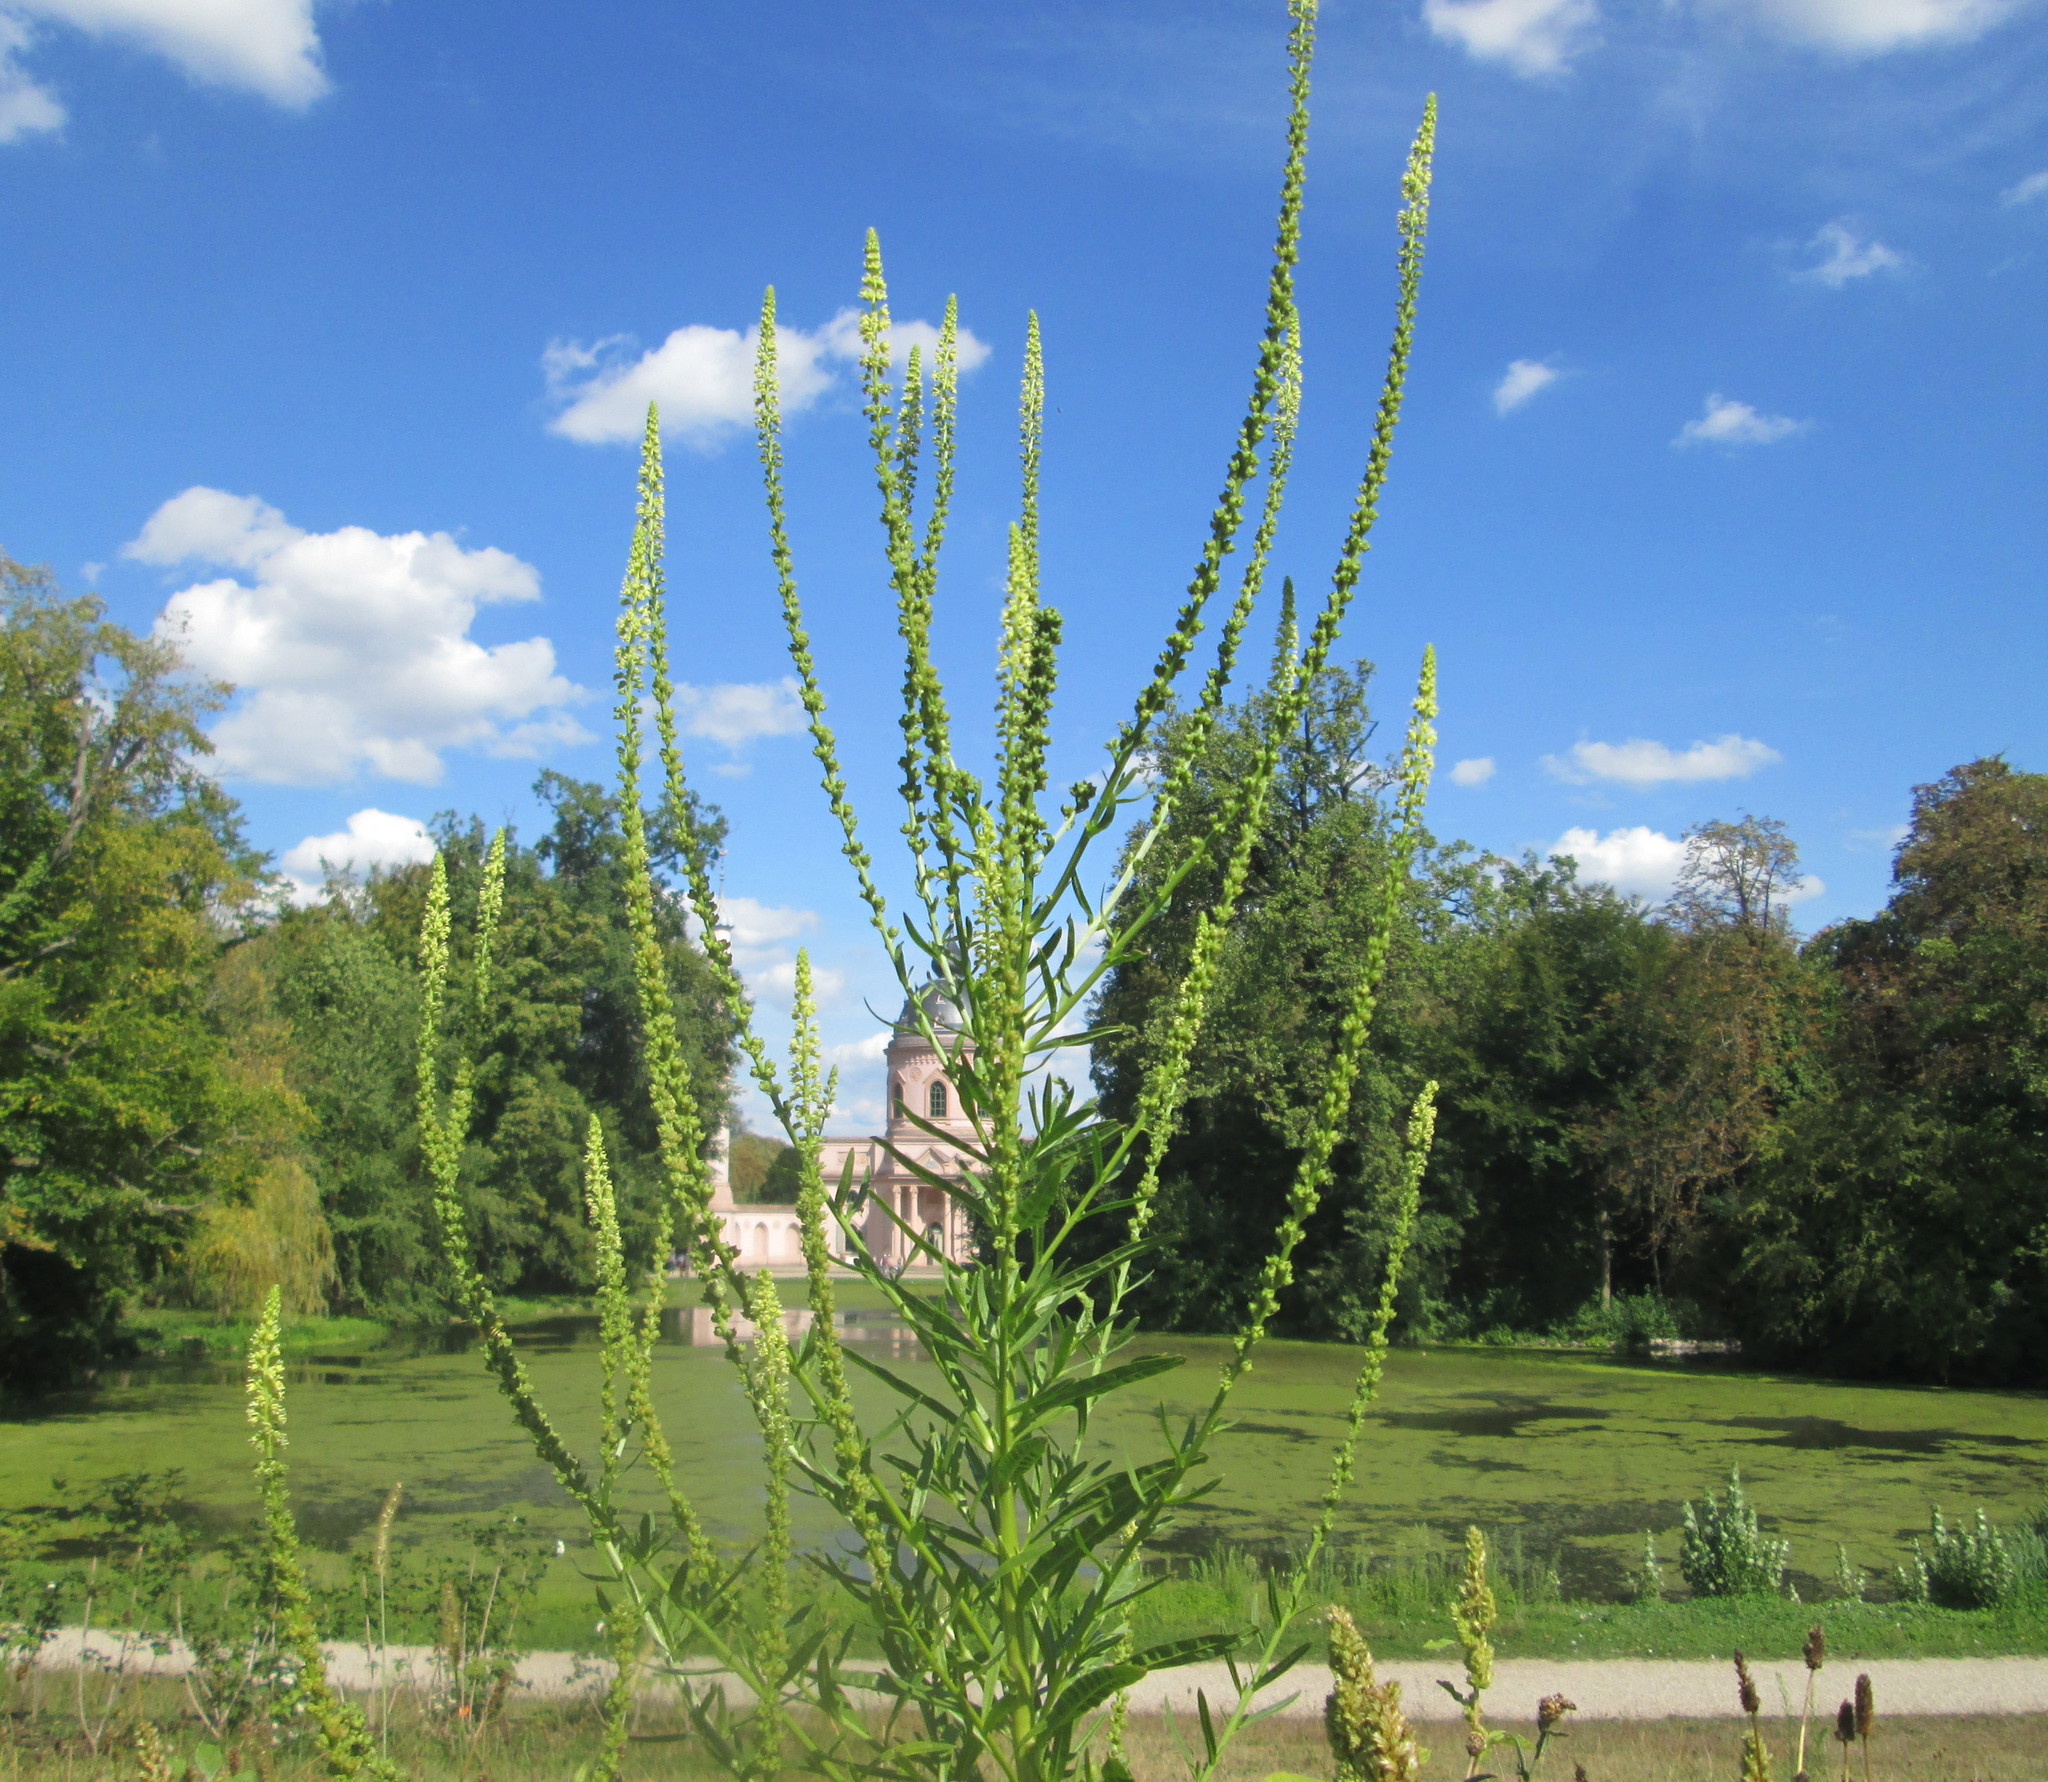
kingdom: Plantae
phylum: Tracheophyta
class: Magnoliopsida
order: Brassicales
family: Resedaceae
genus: Reseda
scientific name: Reseda luteola
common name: Weld
